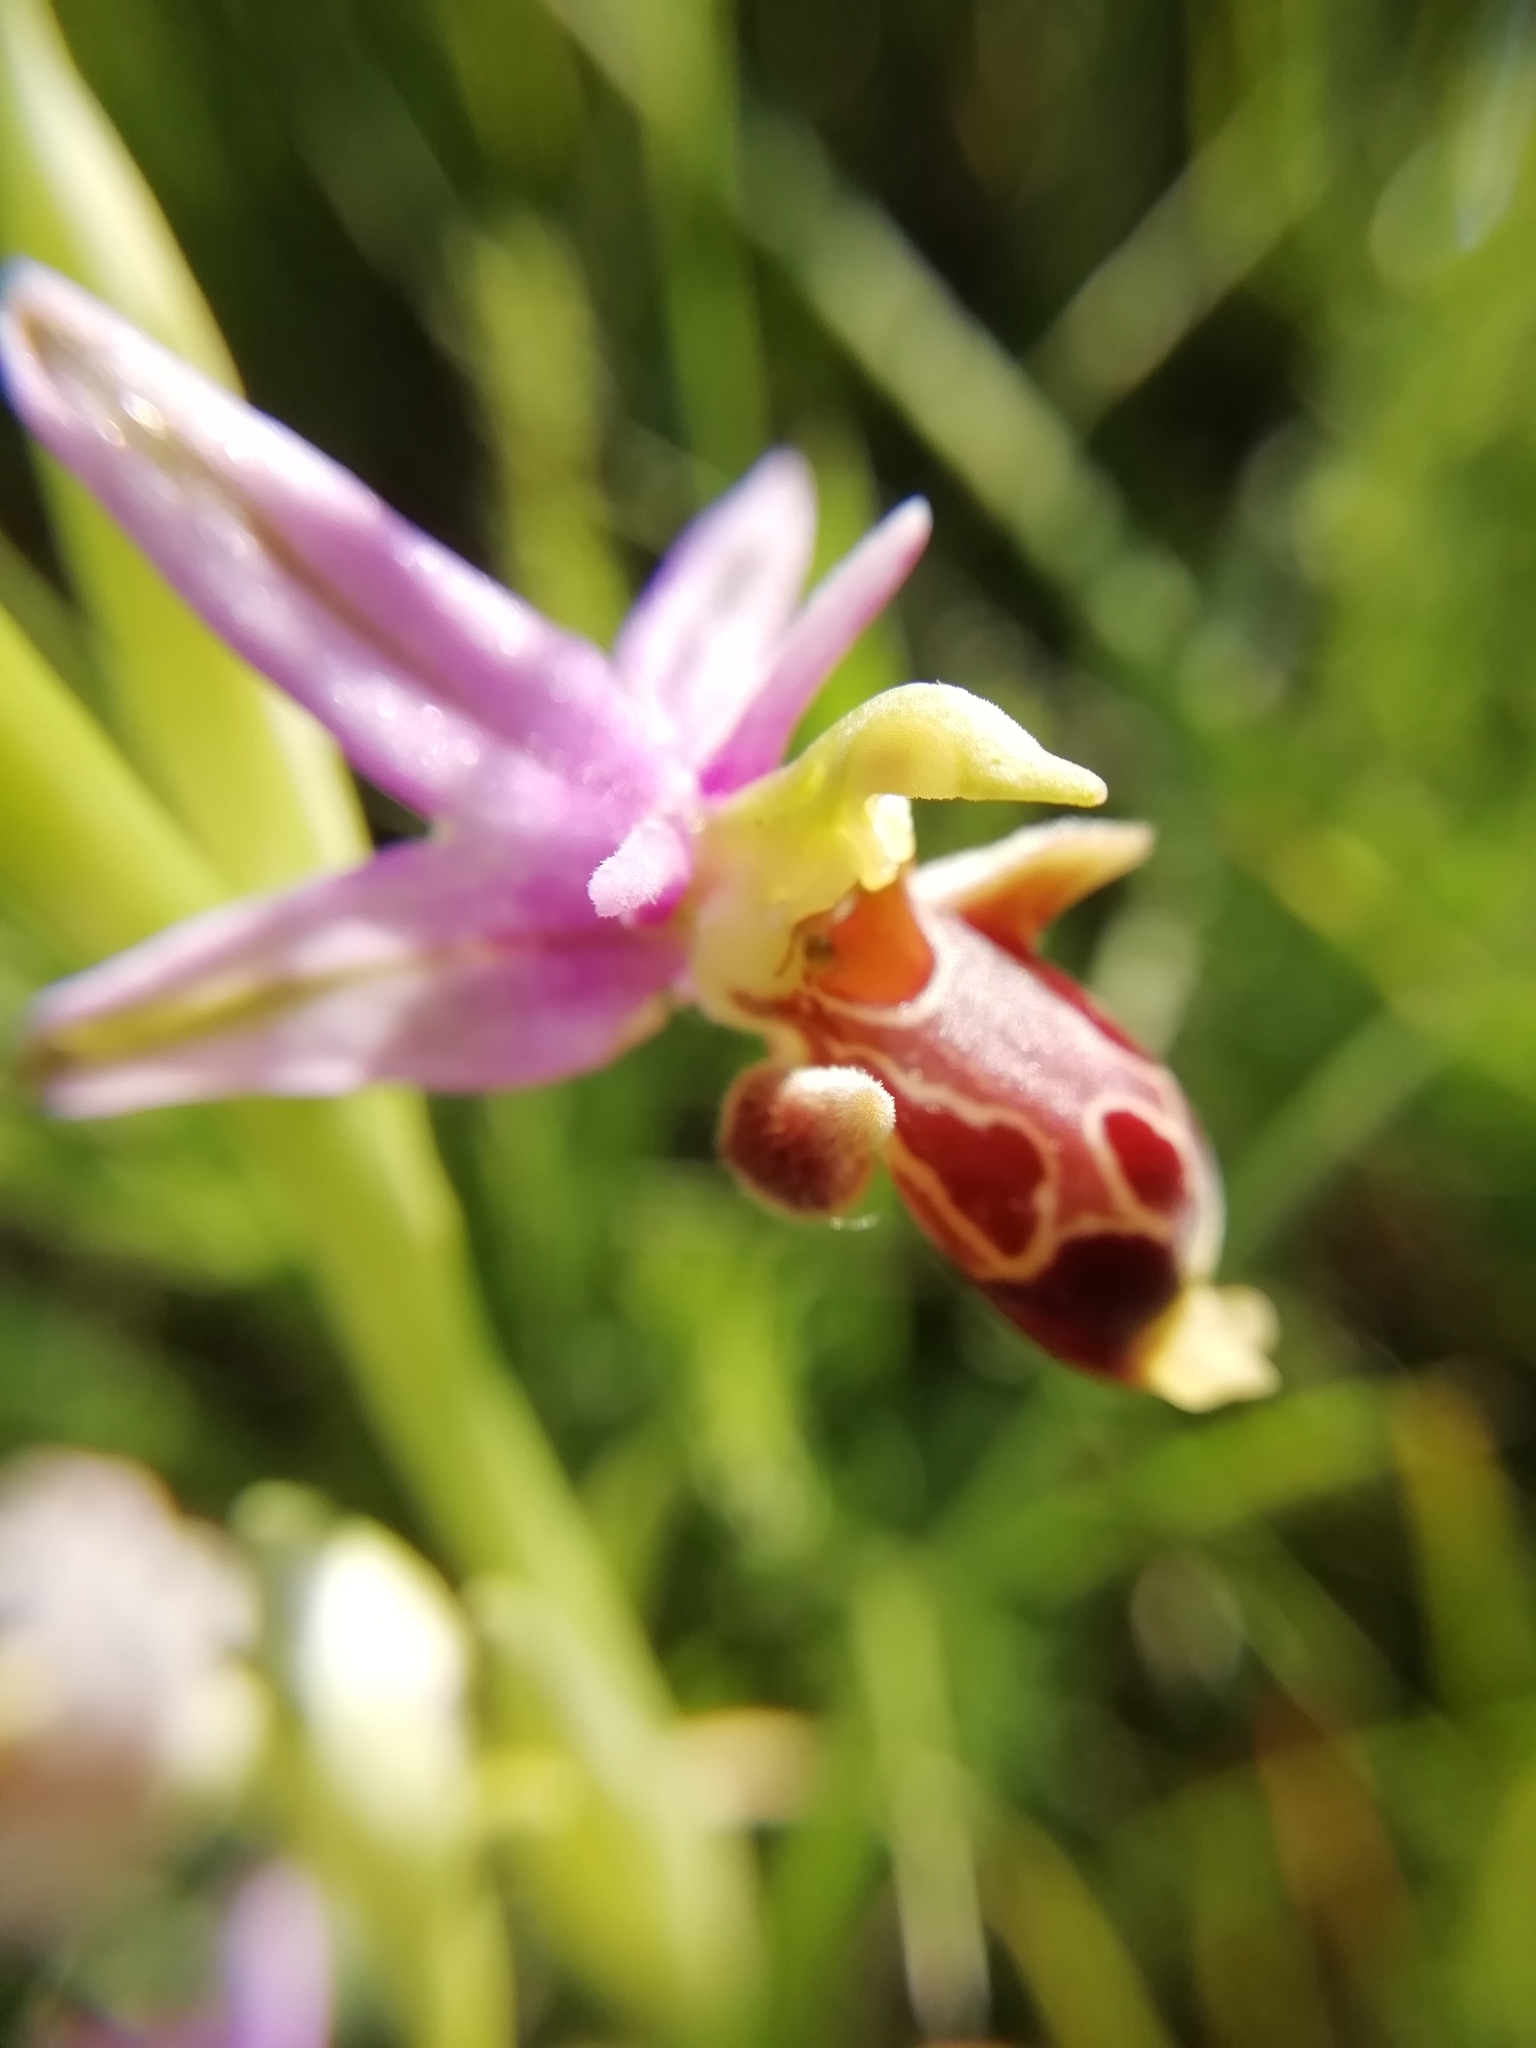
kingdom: Plantae
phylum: Tracheophyta
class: Liliopsida
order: Asparagales
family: Orchidaceae
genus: Ophrys
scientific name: Ophrys scolopax
